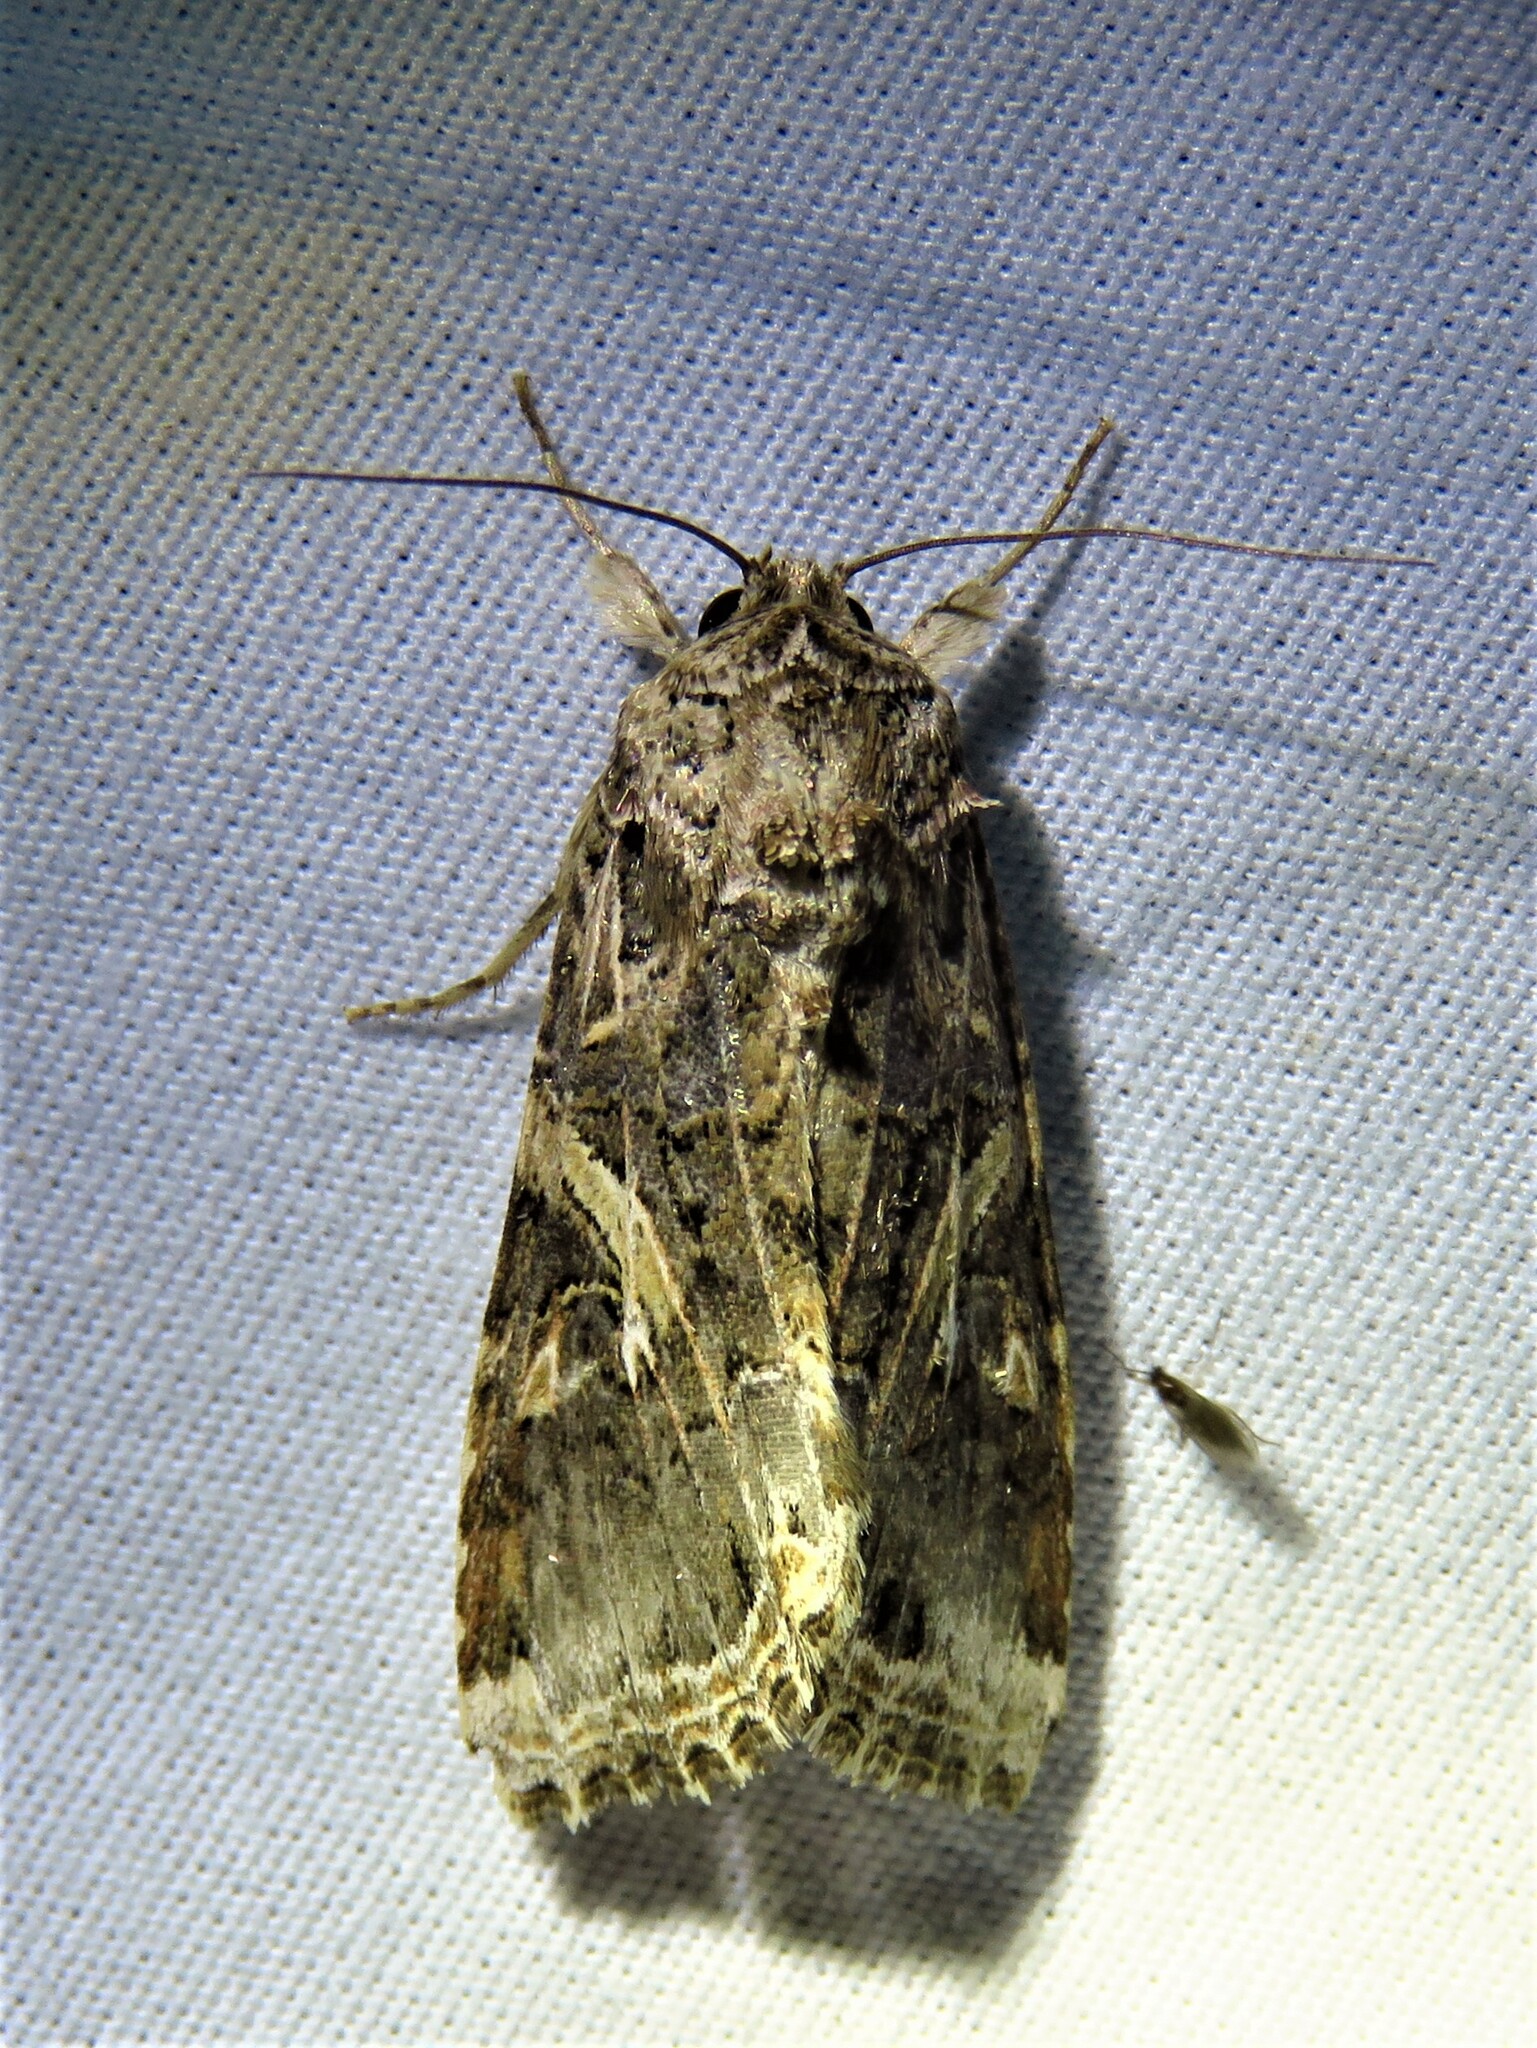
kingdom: Animalia
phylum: Arthropoda
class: Insecta
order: Lepidoptera
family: Noctuidae
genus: Spodoptera
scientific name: Spodoptera ornithogalli
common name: Yellow-striped armyworm
